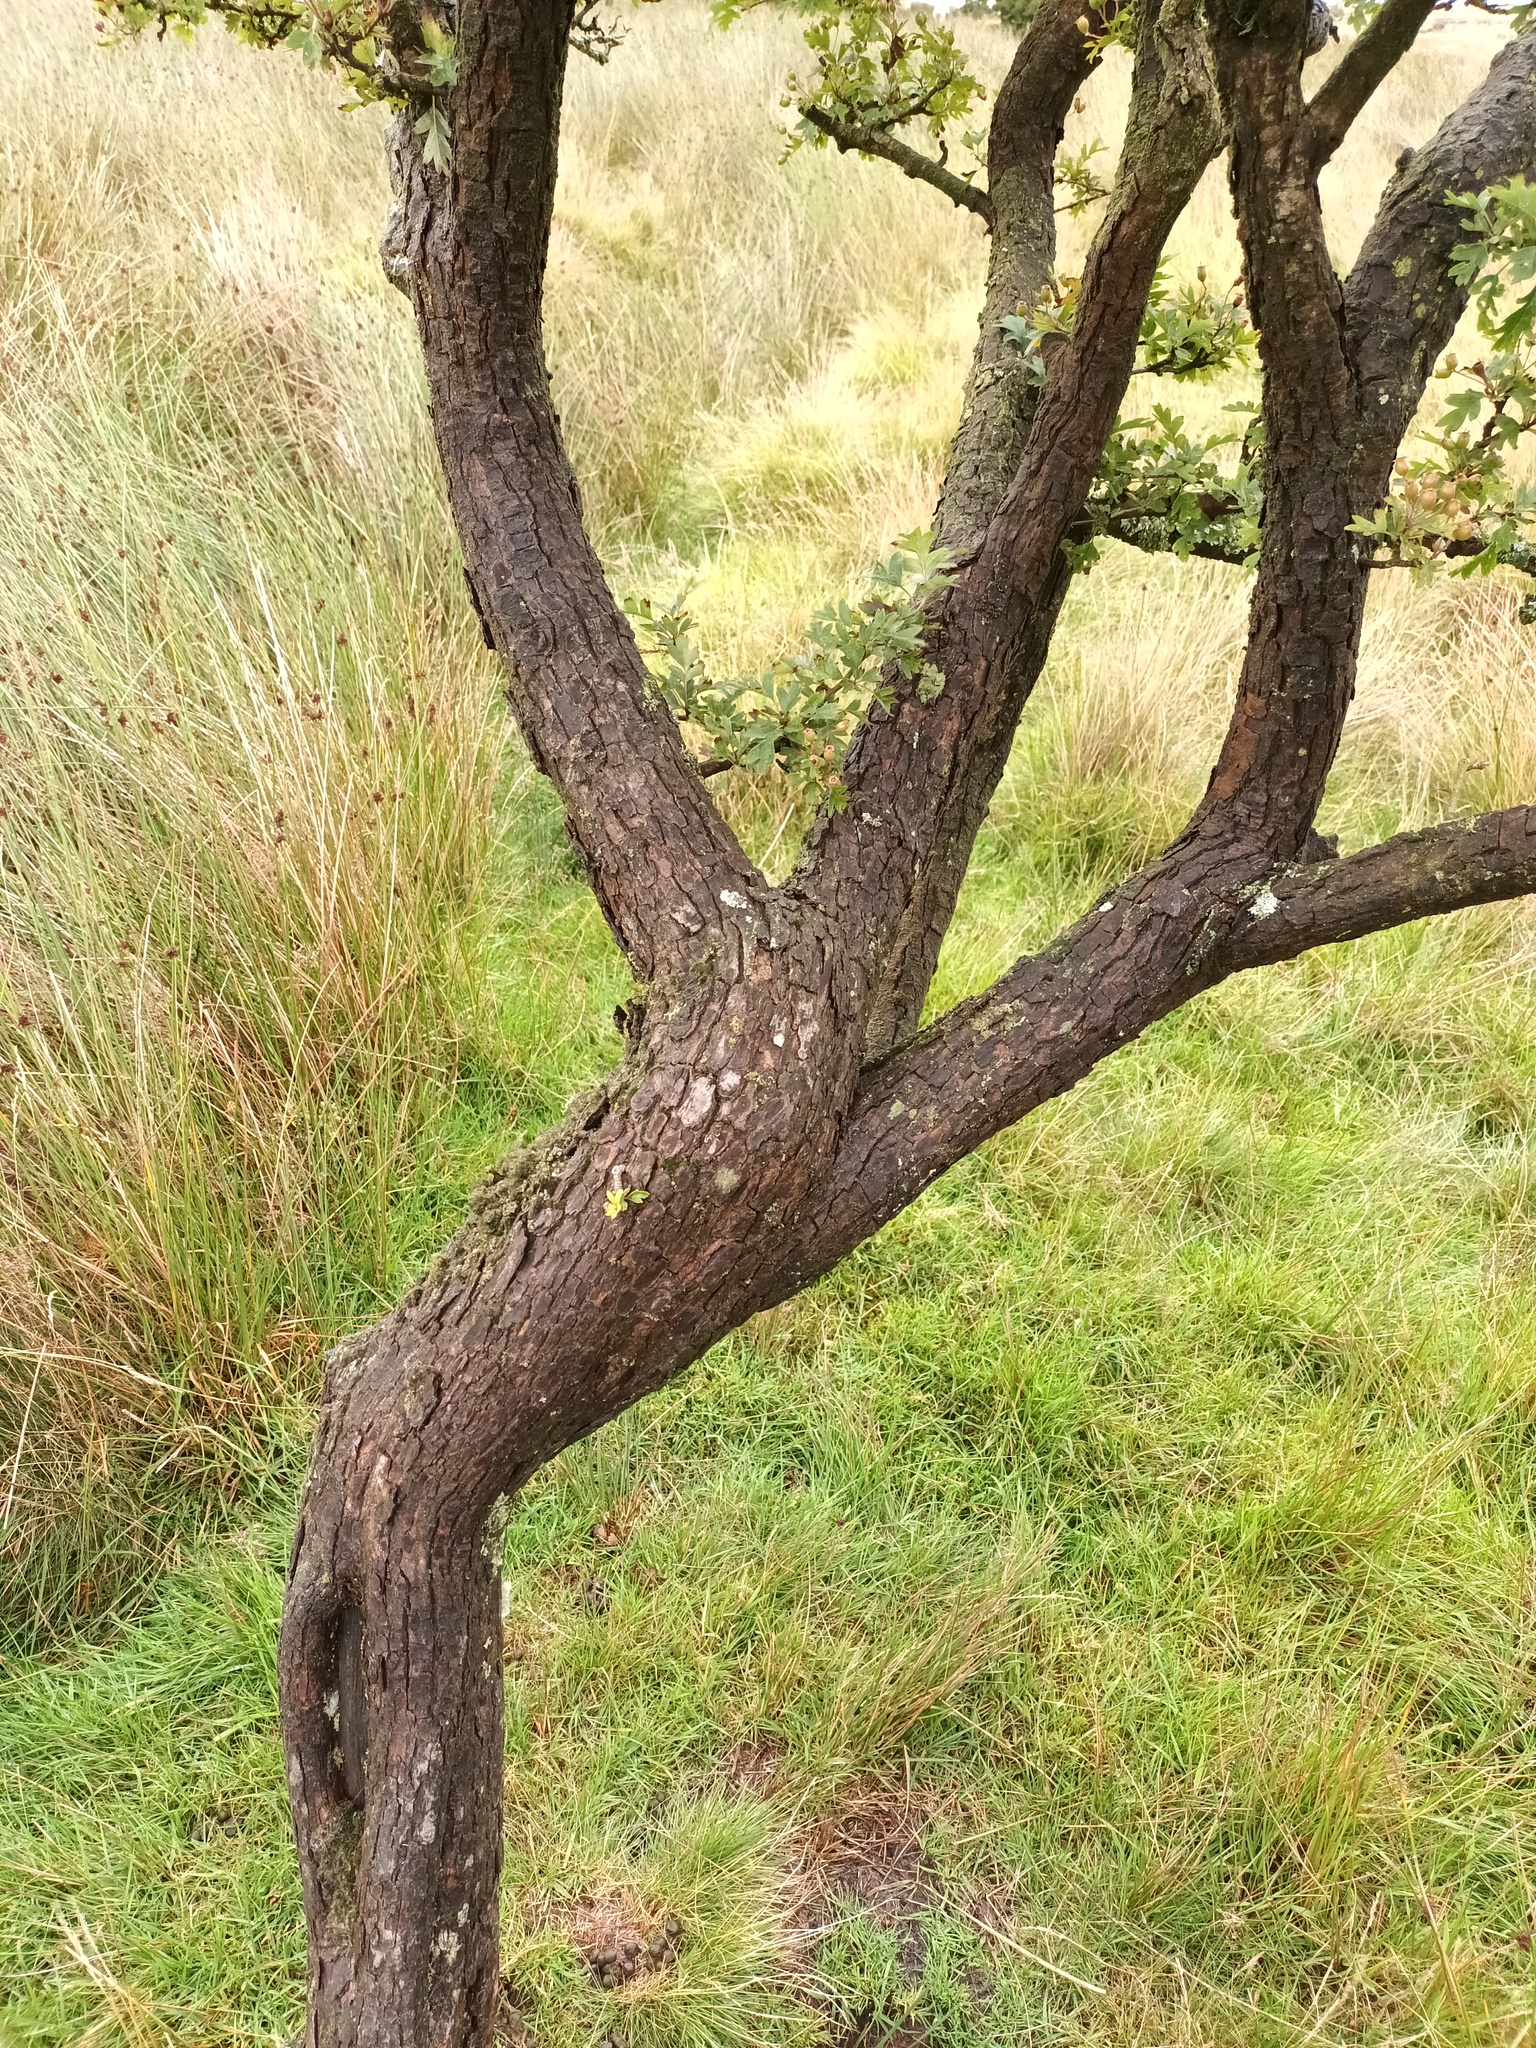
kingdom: Plantae
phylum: Tracheophyta
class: Magnoliopsida
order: Rosales
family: Rosaceae
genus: Crataegus
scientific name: Crataegus monogyna
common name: Hawthorn
